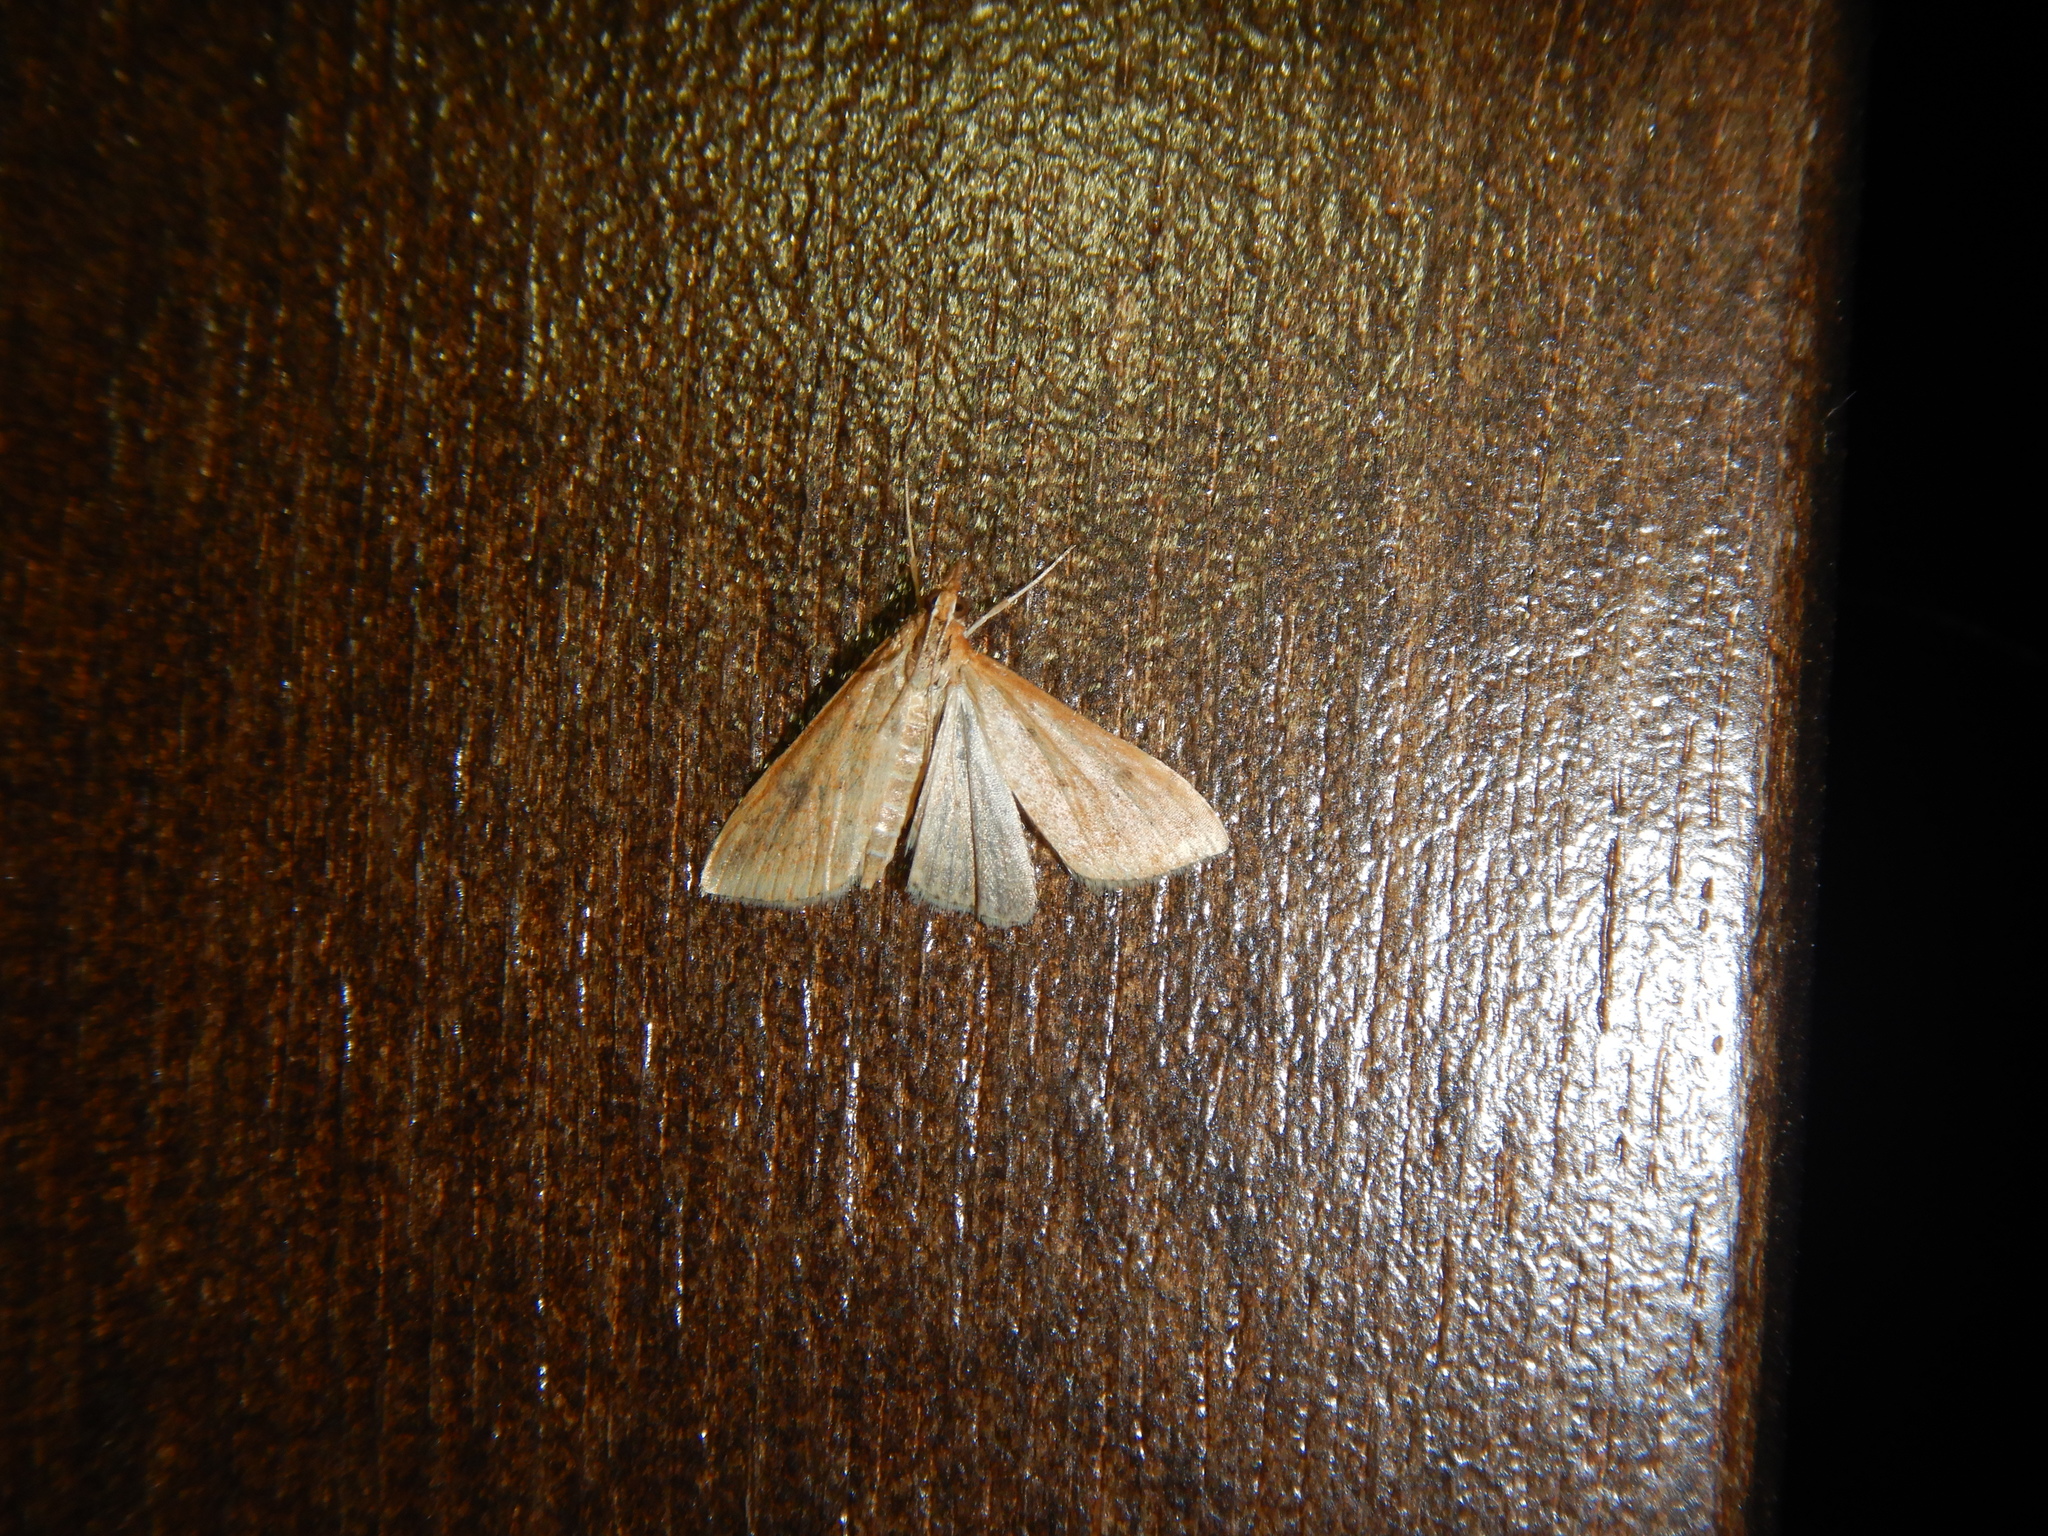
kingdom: Animalia
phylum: Arthropoda
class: Insecta
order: Lepidoptera
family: Crambidae
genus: Udea
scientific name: Udea ferrugalis
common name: Rusty dot
